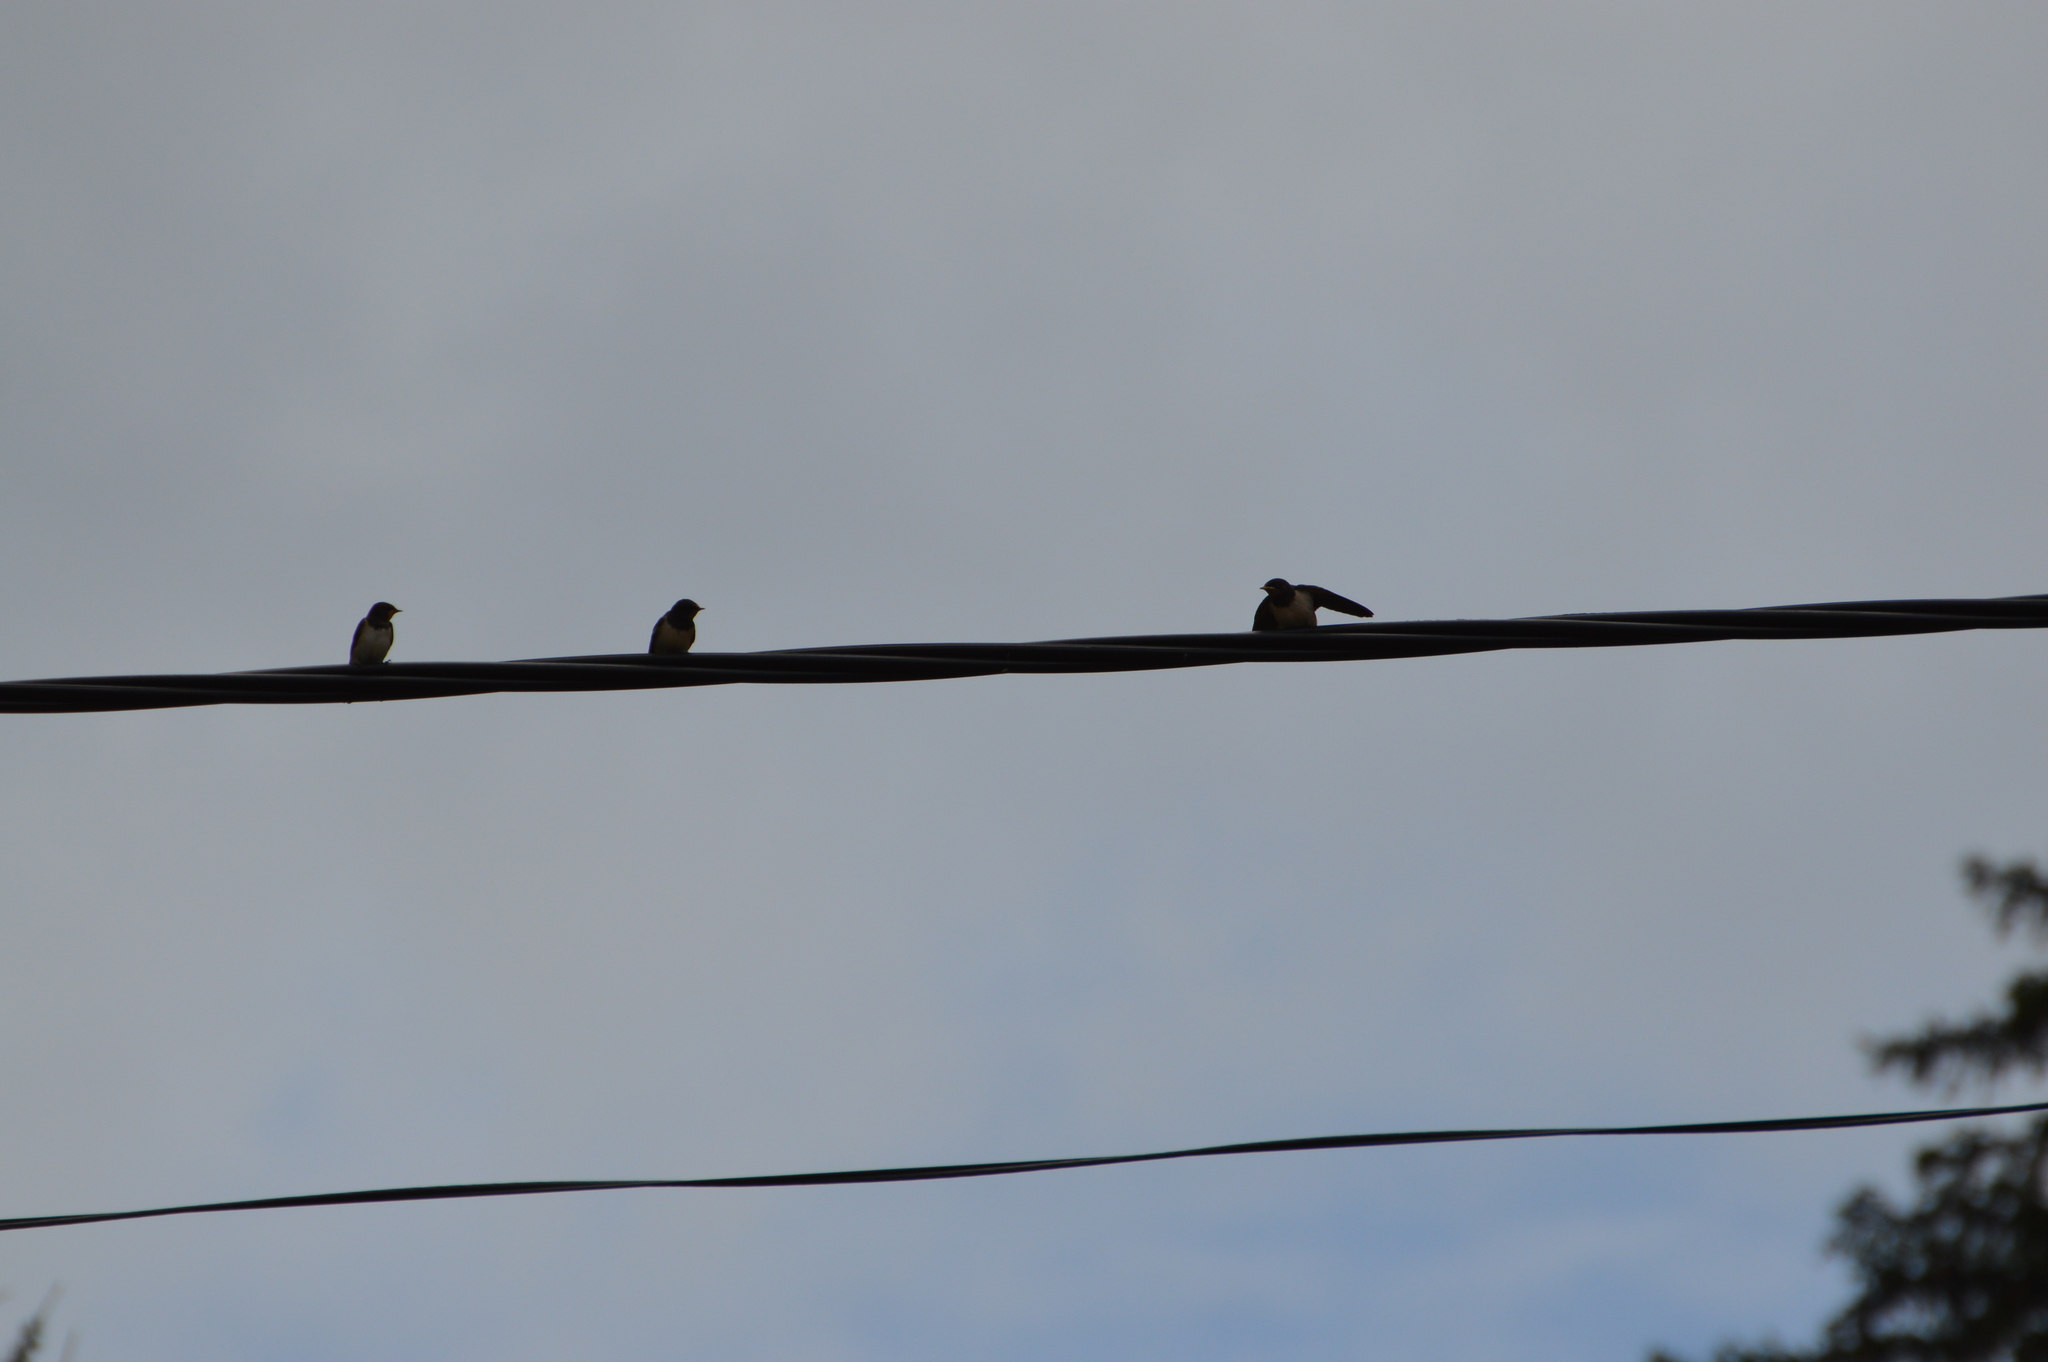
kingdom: Animalia
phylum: Chordata
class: Aves
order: Passeriformes
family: Hirundinidae
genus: Hirundo
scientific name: Hirundo rustica
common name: Barn swallow
